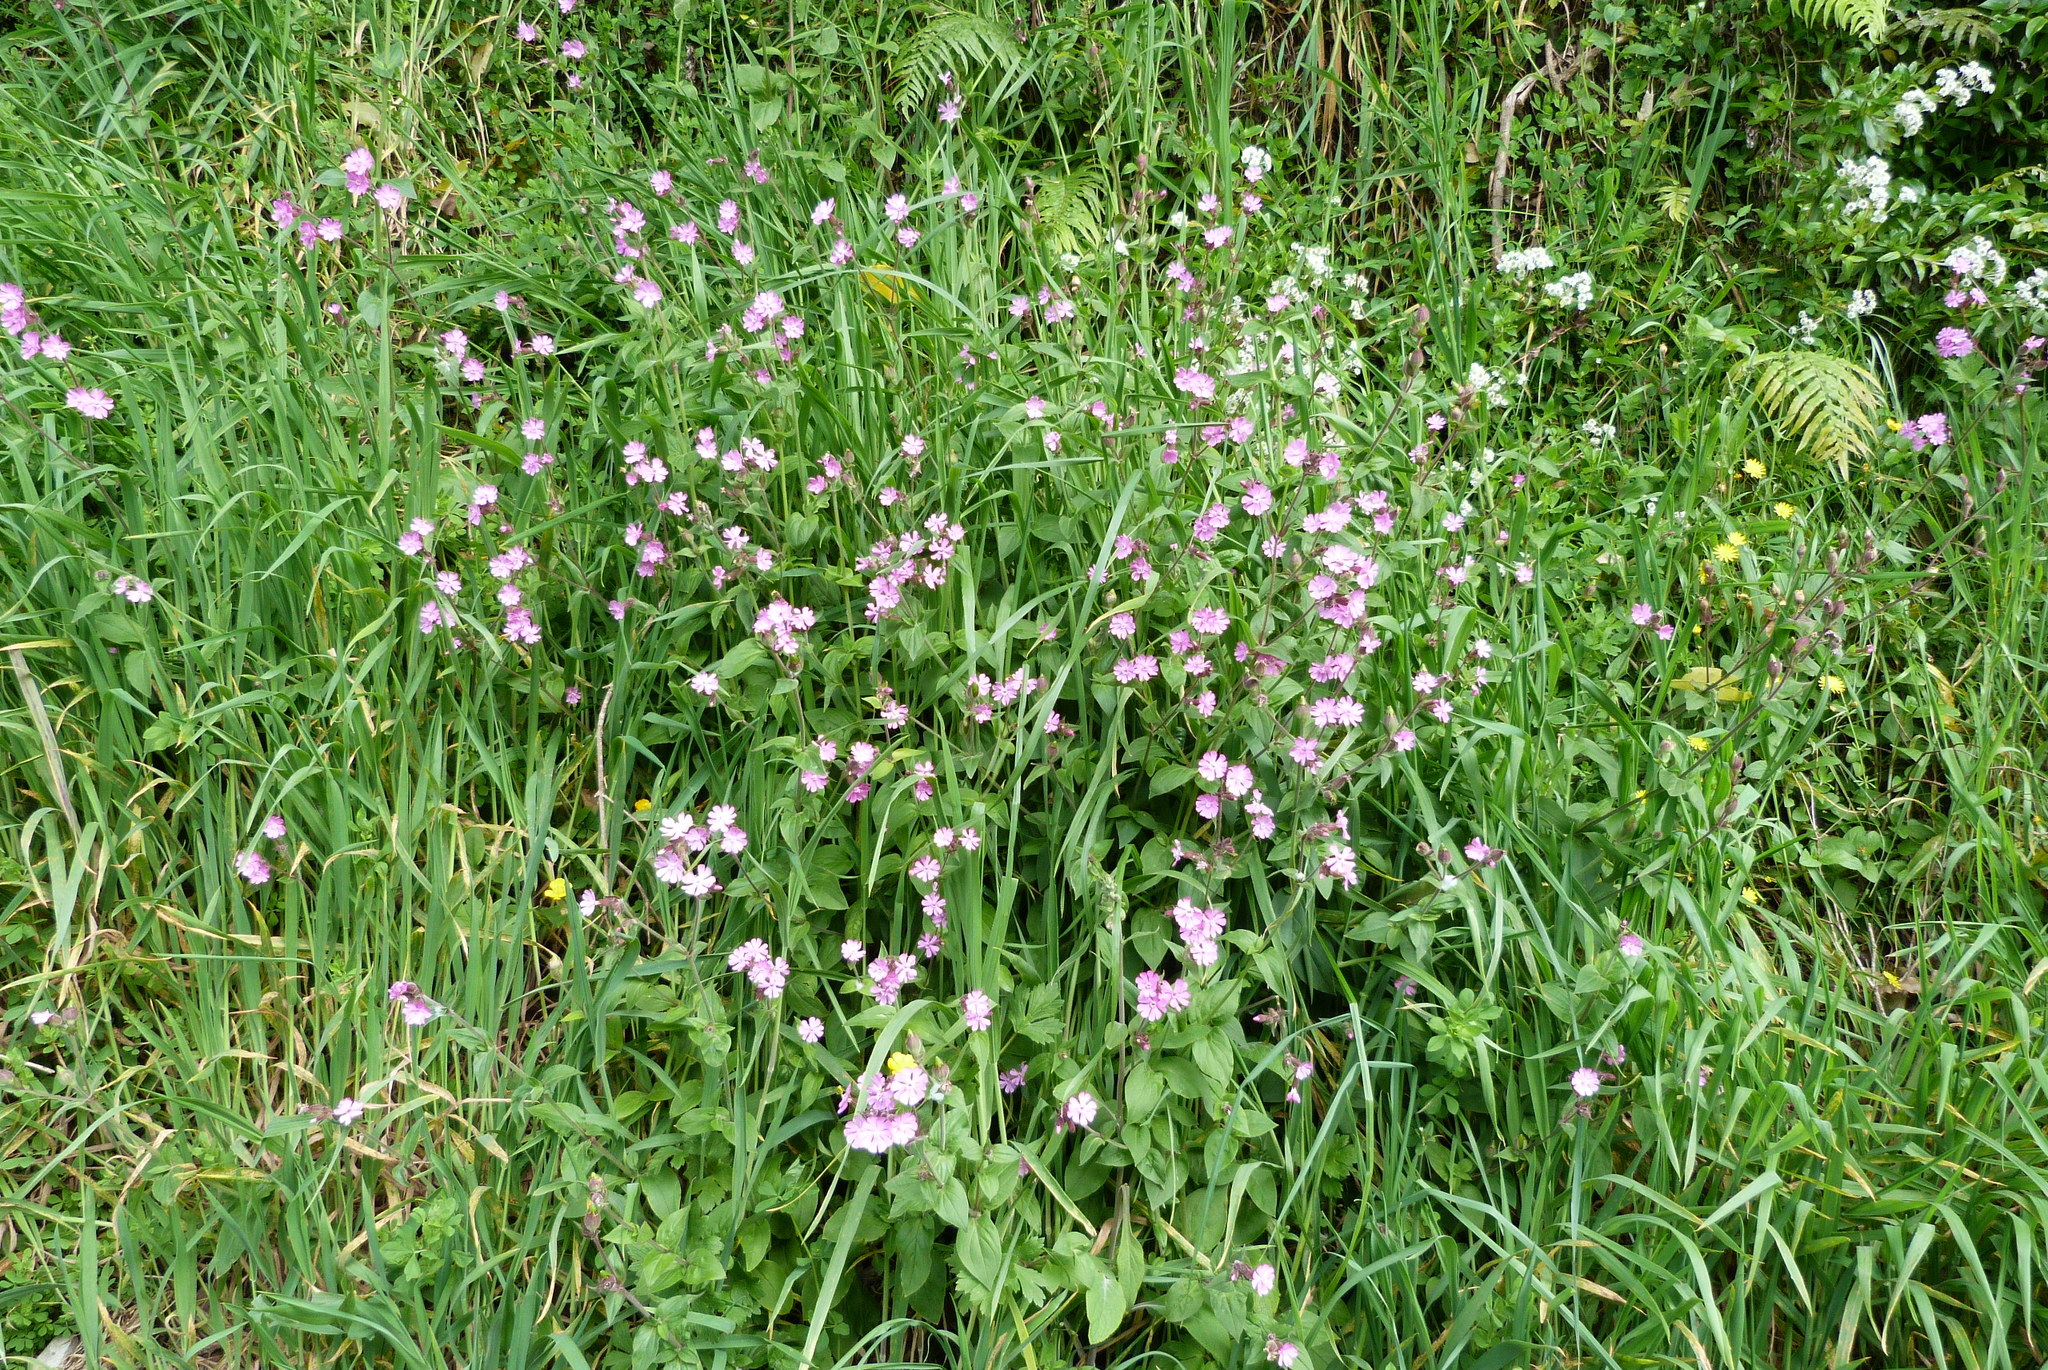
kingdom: Plantae
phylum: Tracheophyta
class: Magnoliopsida
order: Caryophyllales
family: Caryophyllaceae
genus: Silene
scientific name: Silene dioica
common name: Red campion
